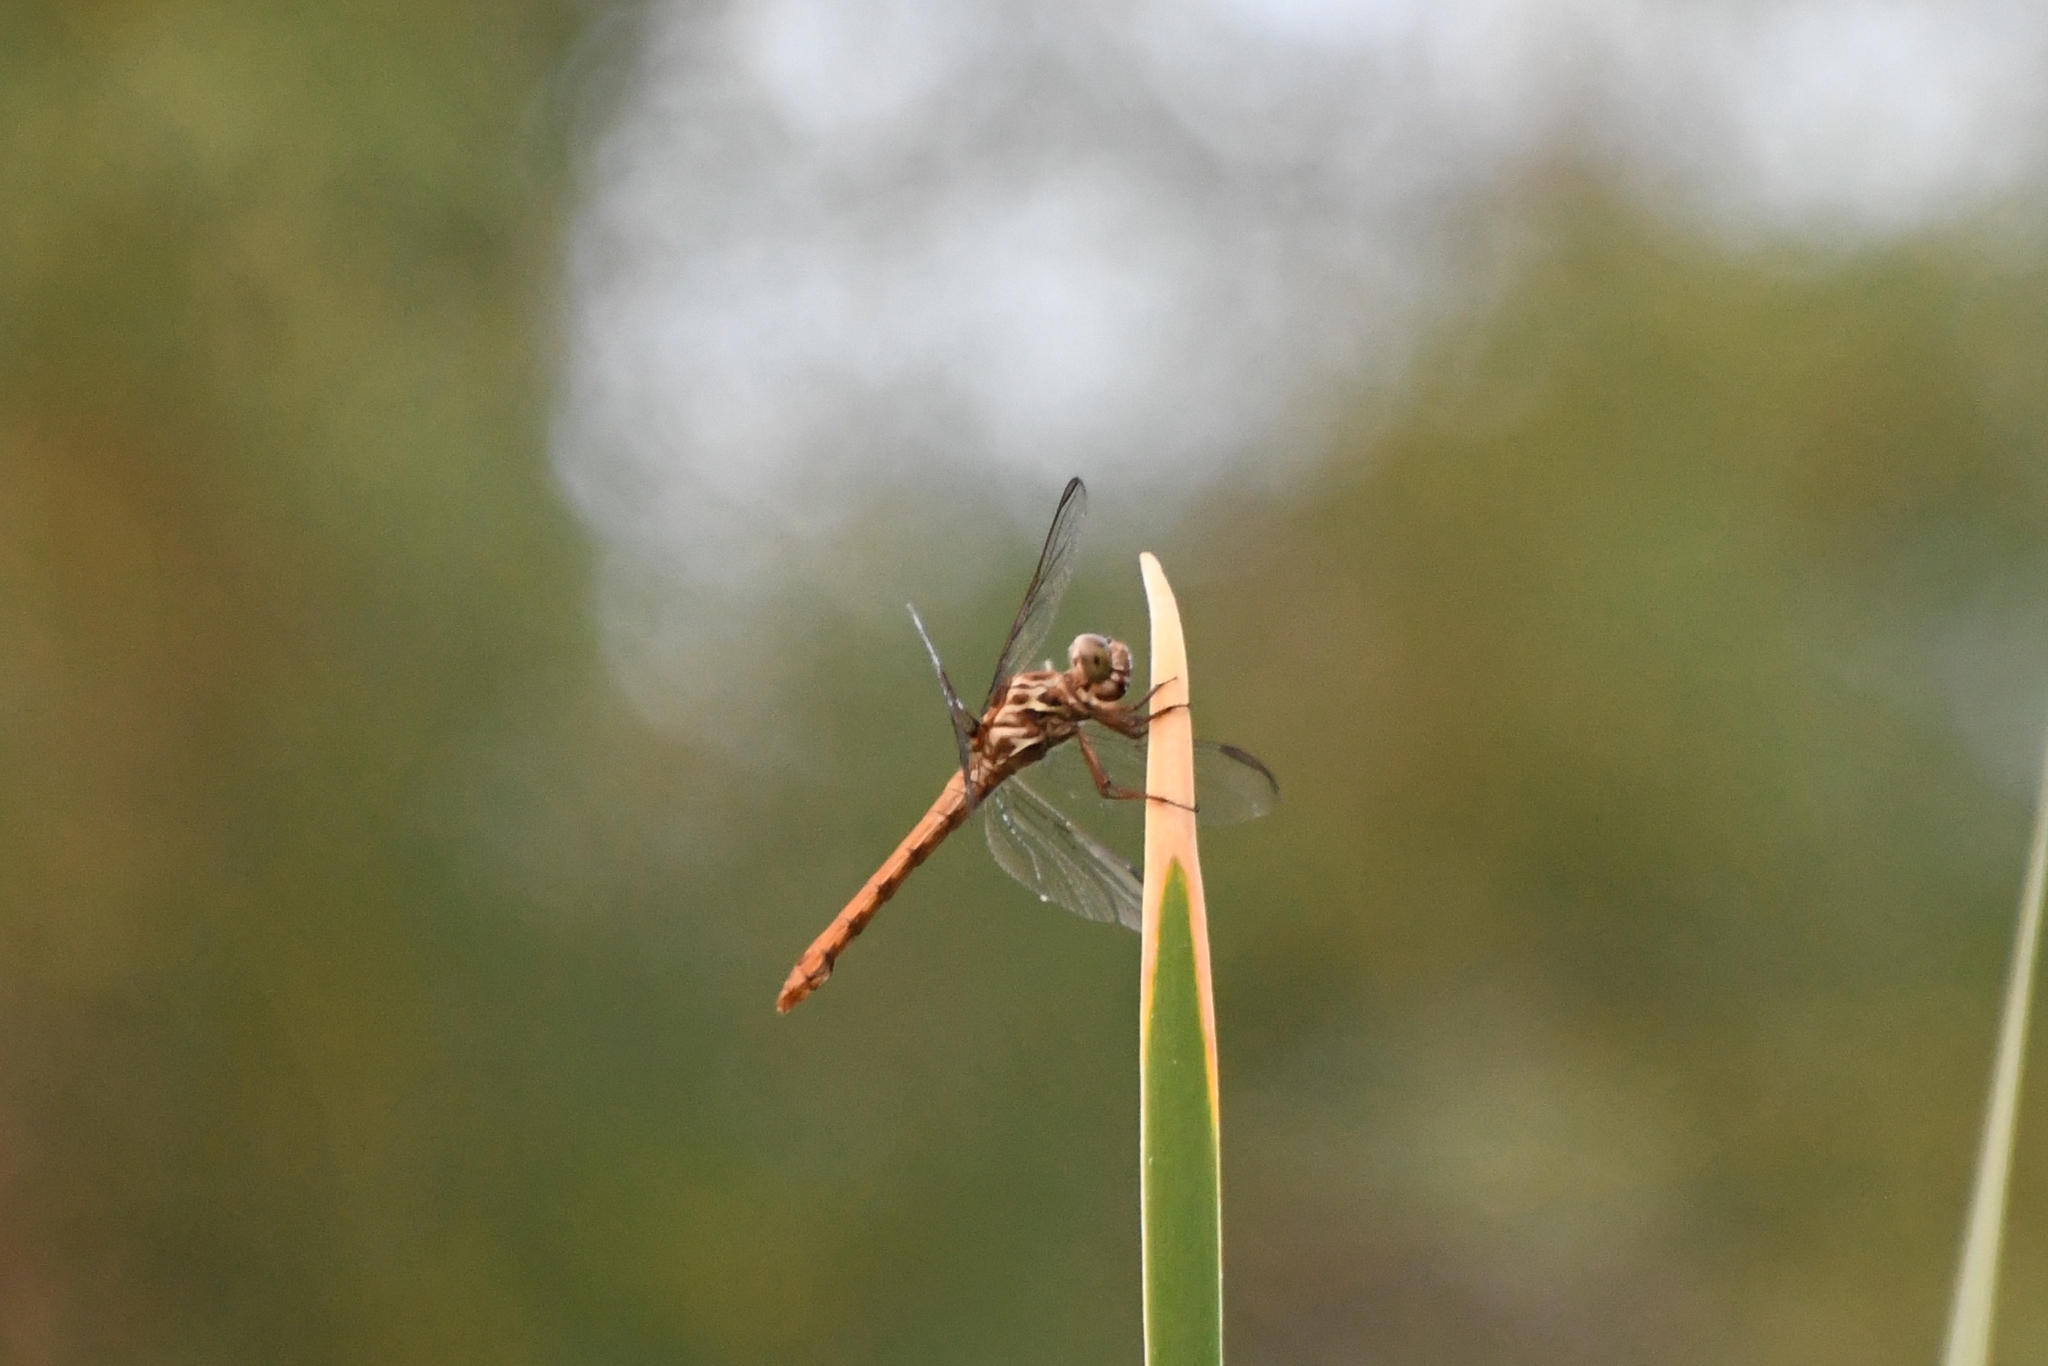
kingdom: Animalia
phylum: Arthropoda
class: Insecta
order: Odonata
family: Libellulidae
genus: Orthemis
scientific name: Orthemis ferruginea
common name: Roseate skimmer
